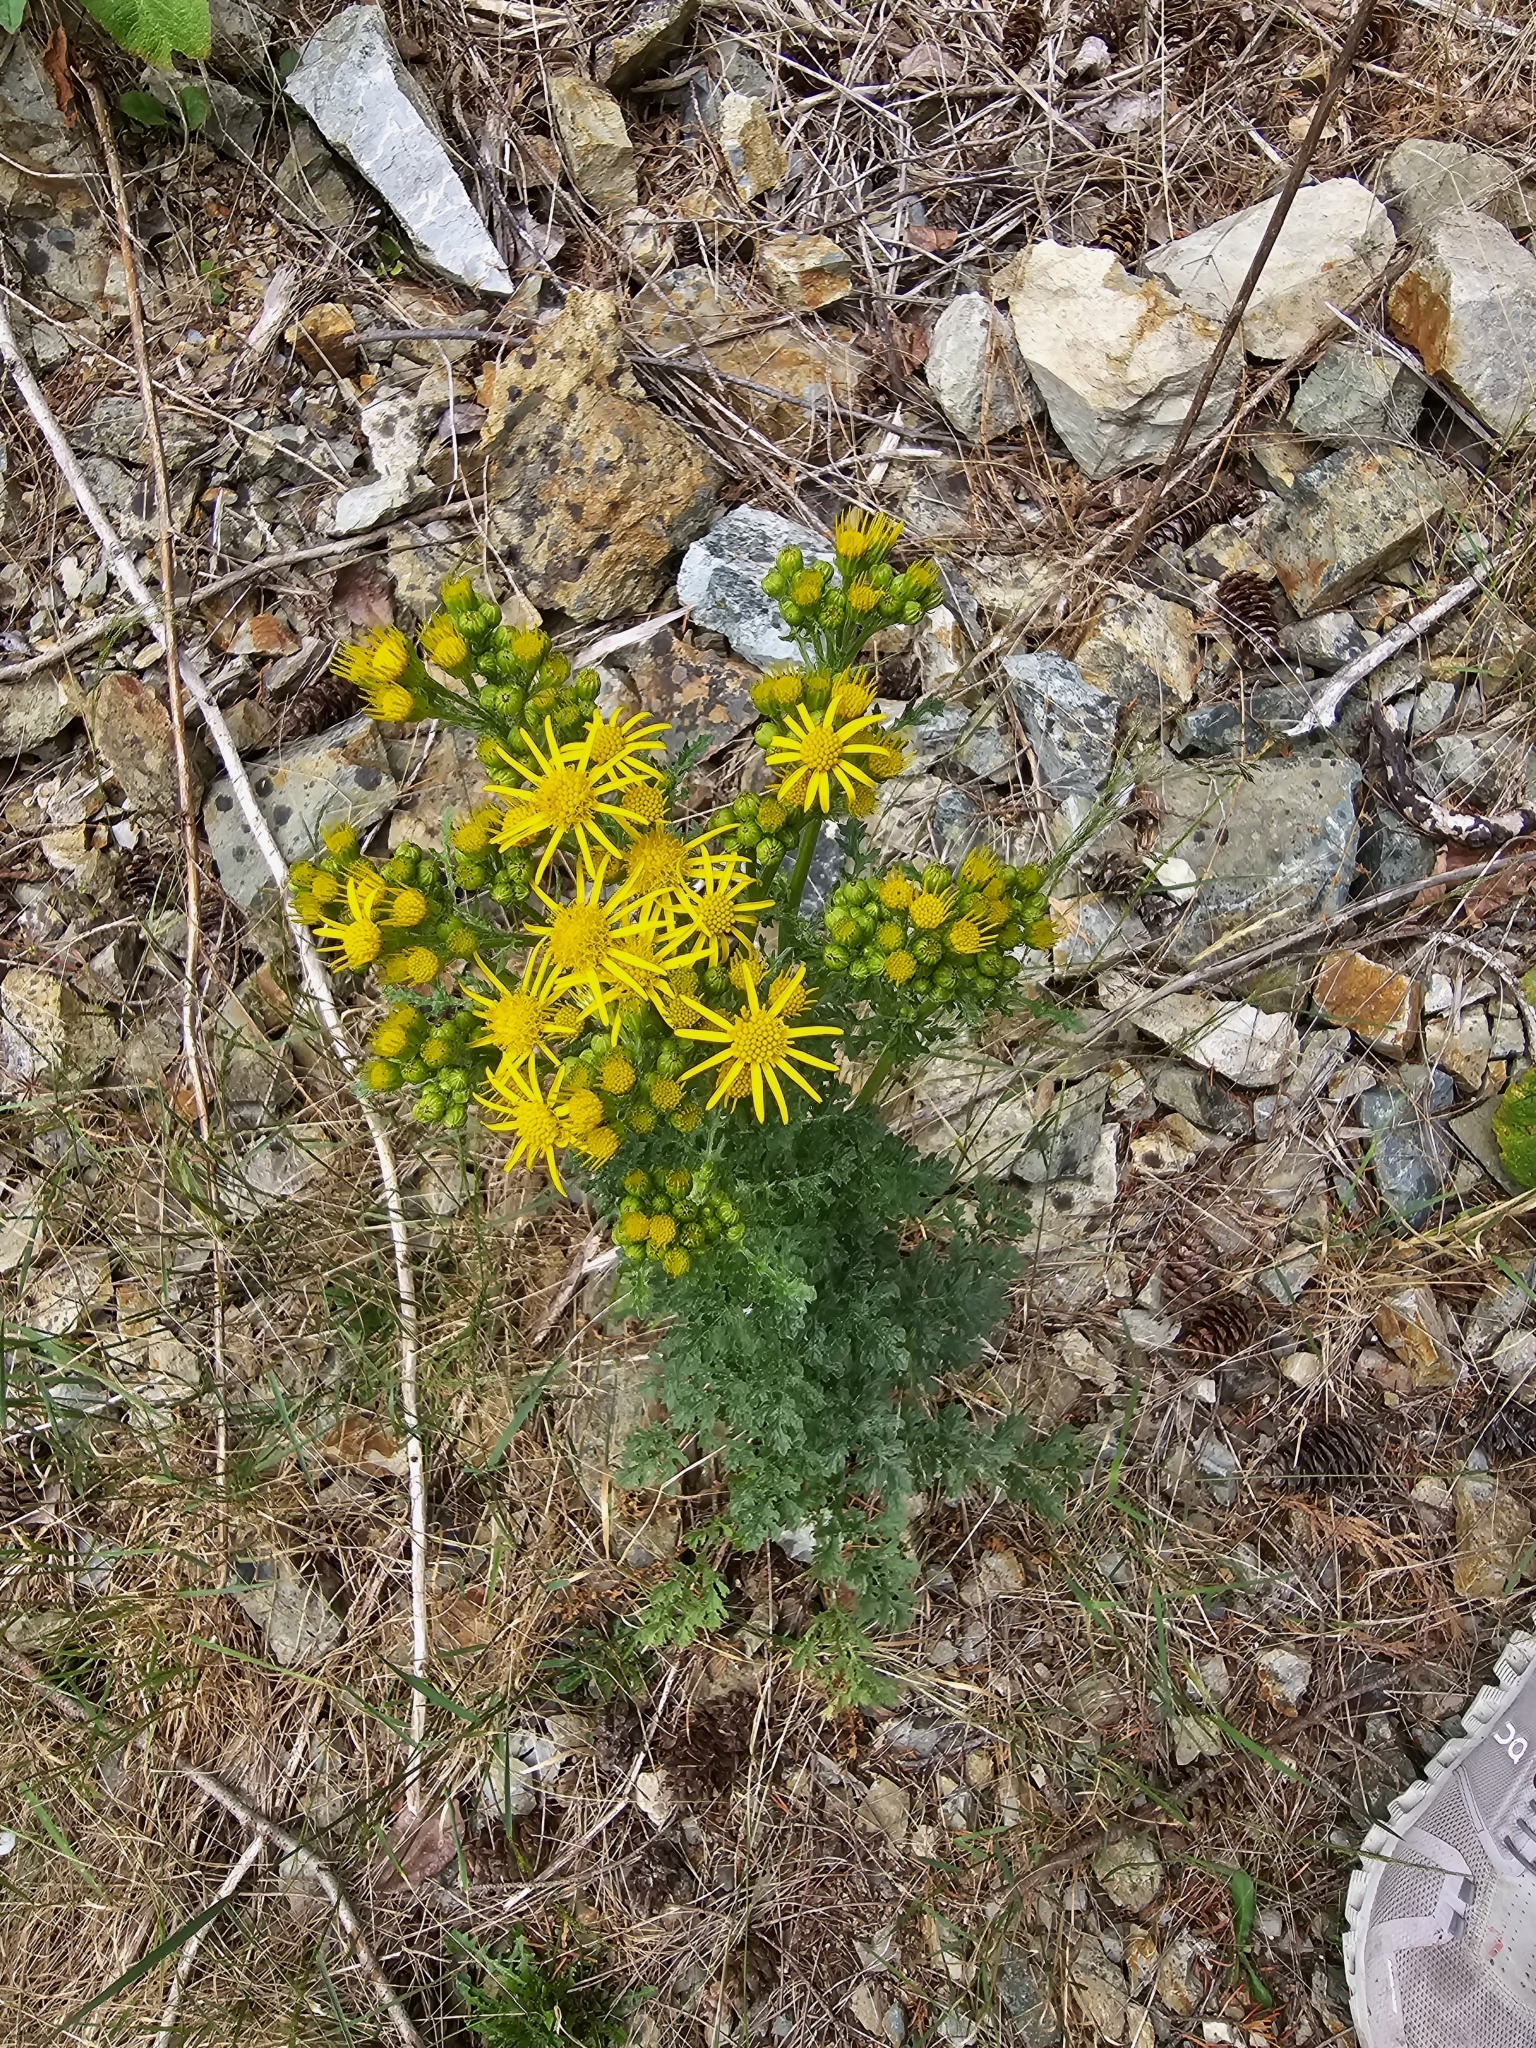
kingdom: Plantae
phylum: Tracheophyta
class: Magnoliopsida
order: Asterales
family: Asteraceae
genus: Jacobaea
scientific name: Jacobaea vulgaris
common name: Stinking willie
